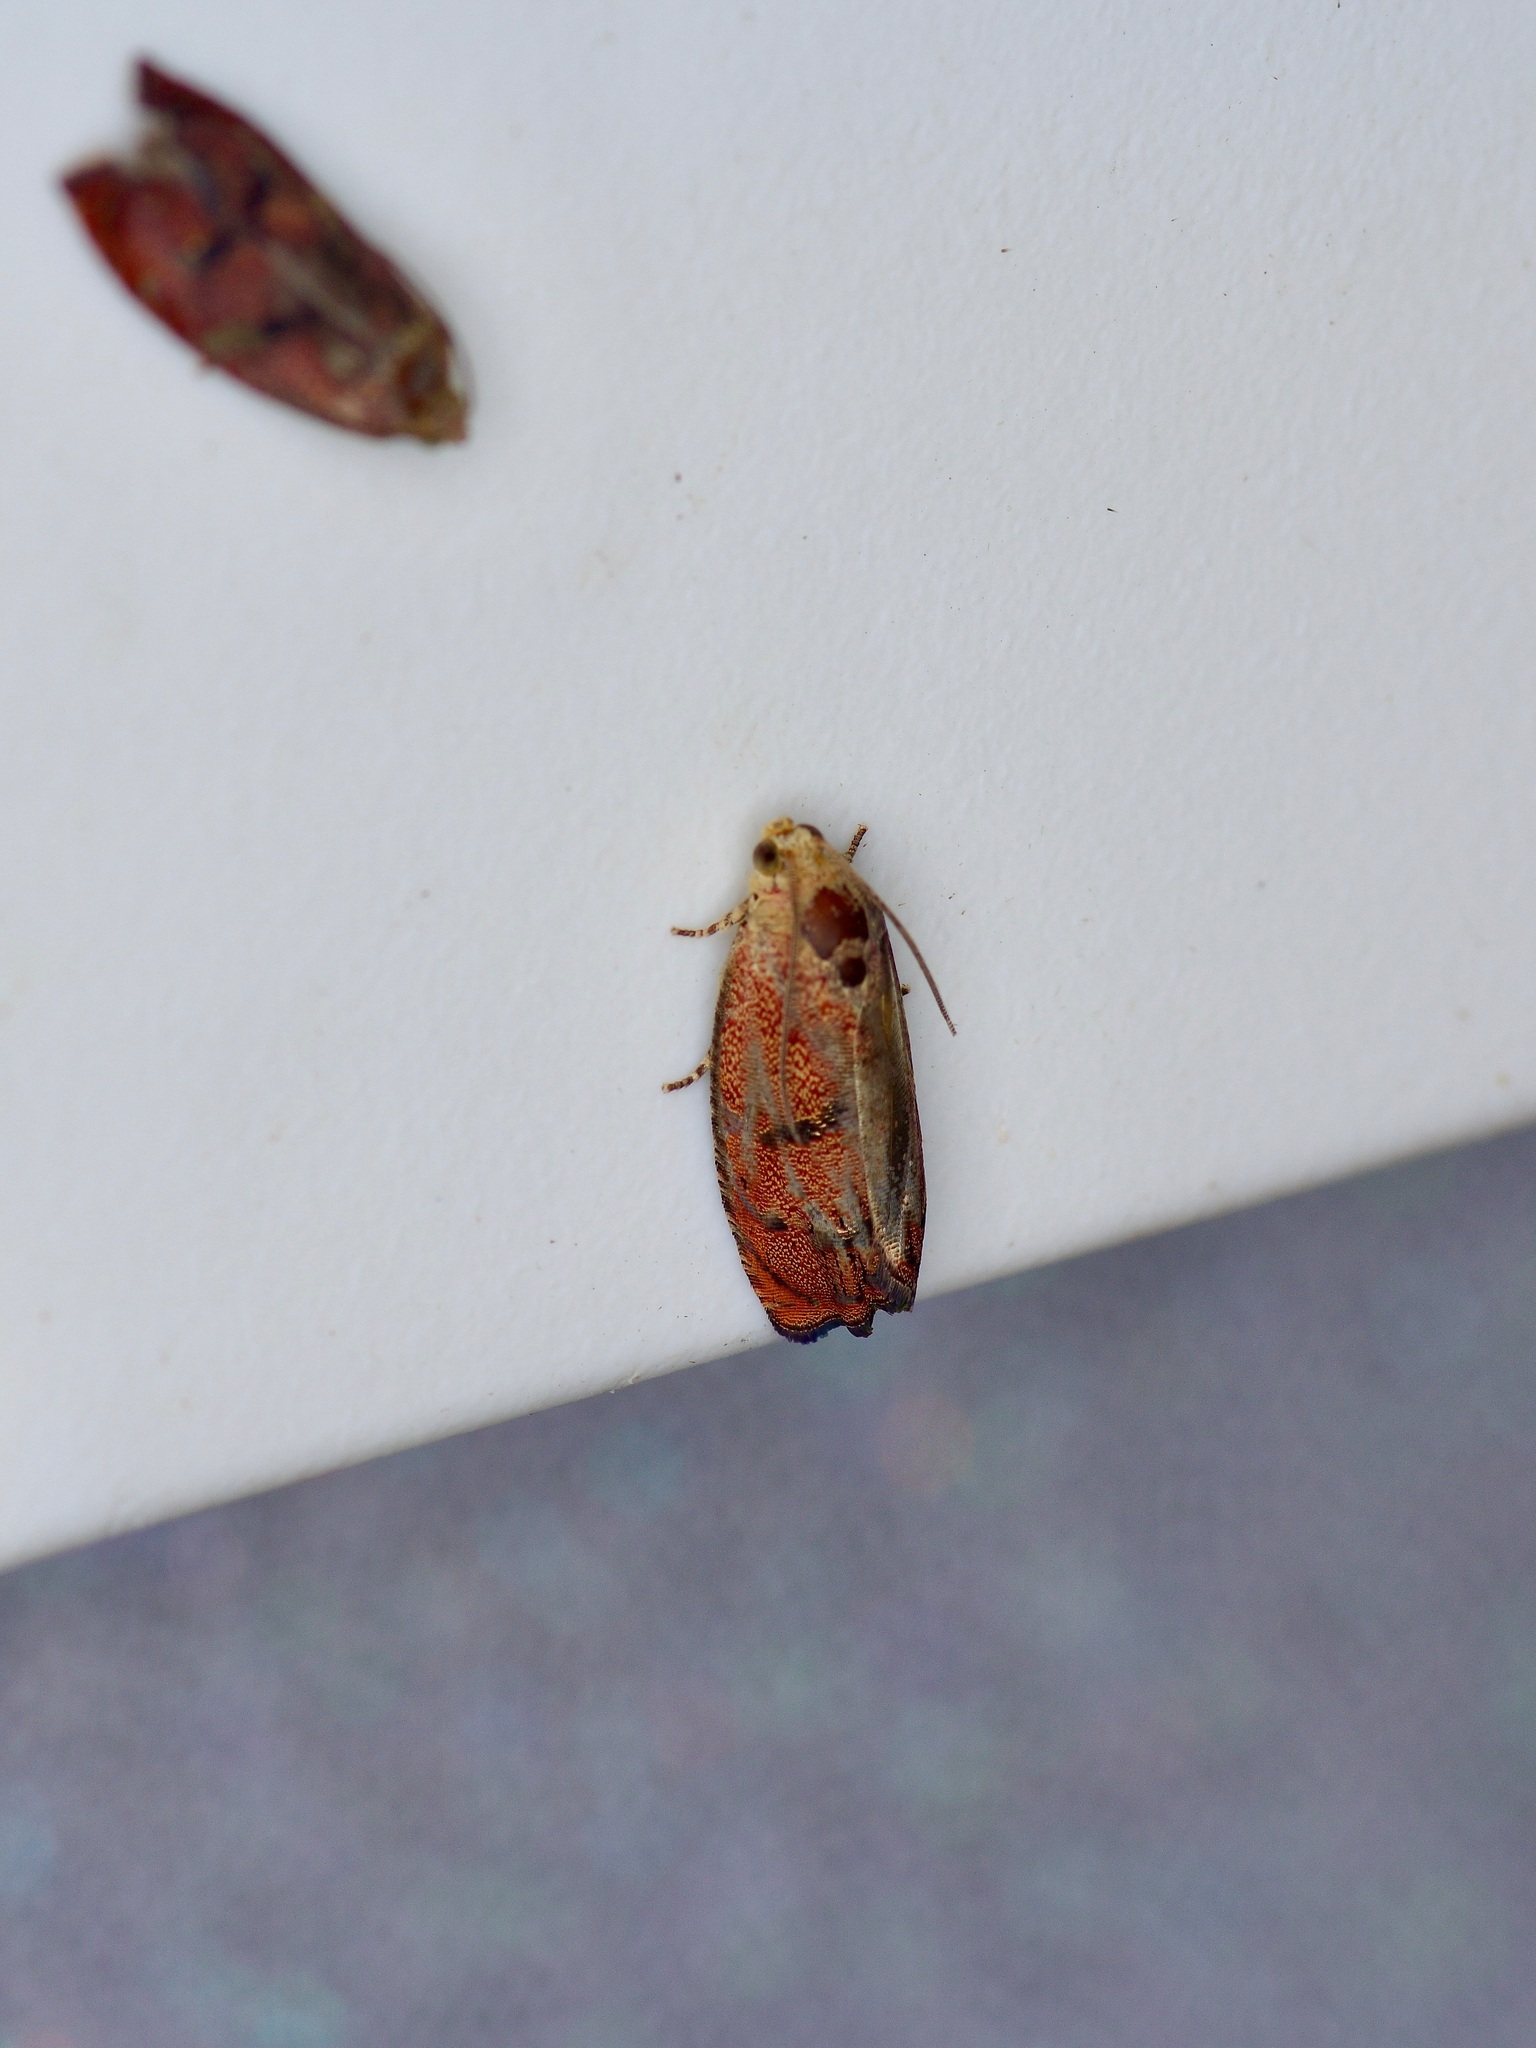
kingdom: Animalia
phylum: Arthropoda
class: Insecta
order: Lepidoptera
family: Tortricidae
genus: Cydia
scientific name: Cydia latiferreana
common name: Filbertworm moth
